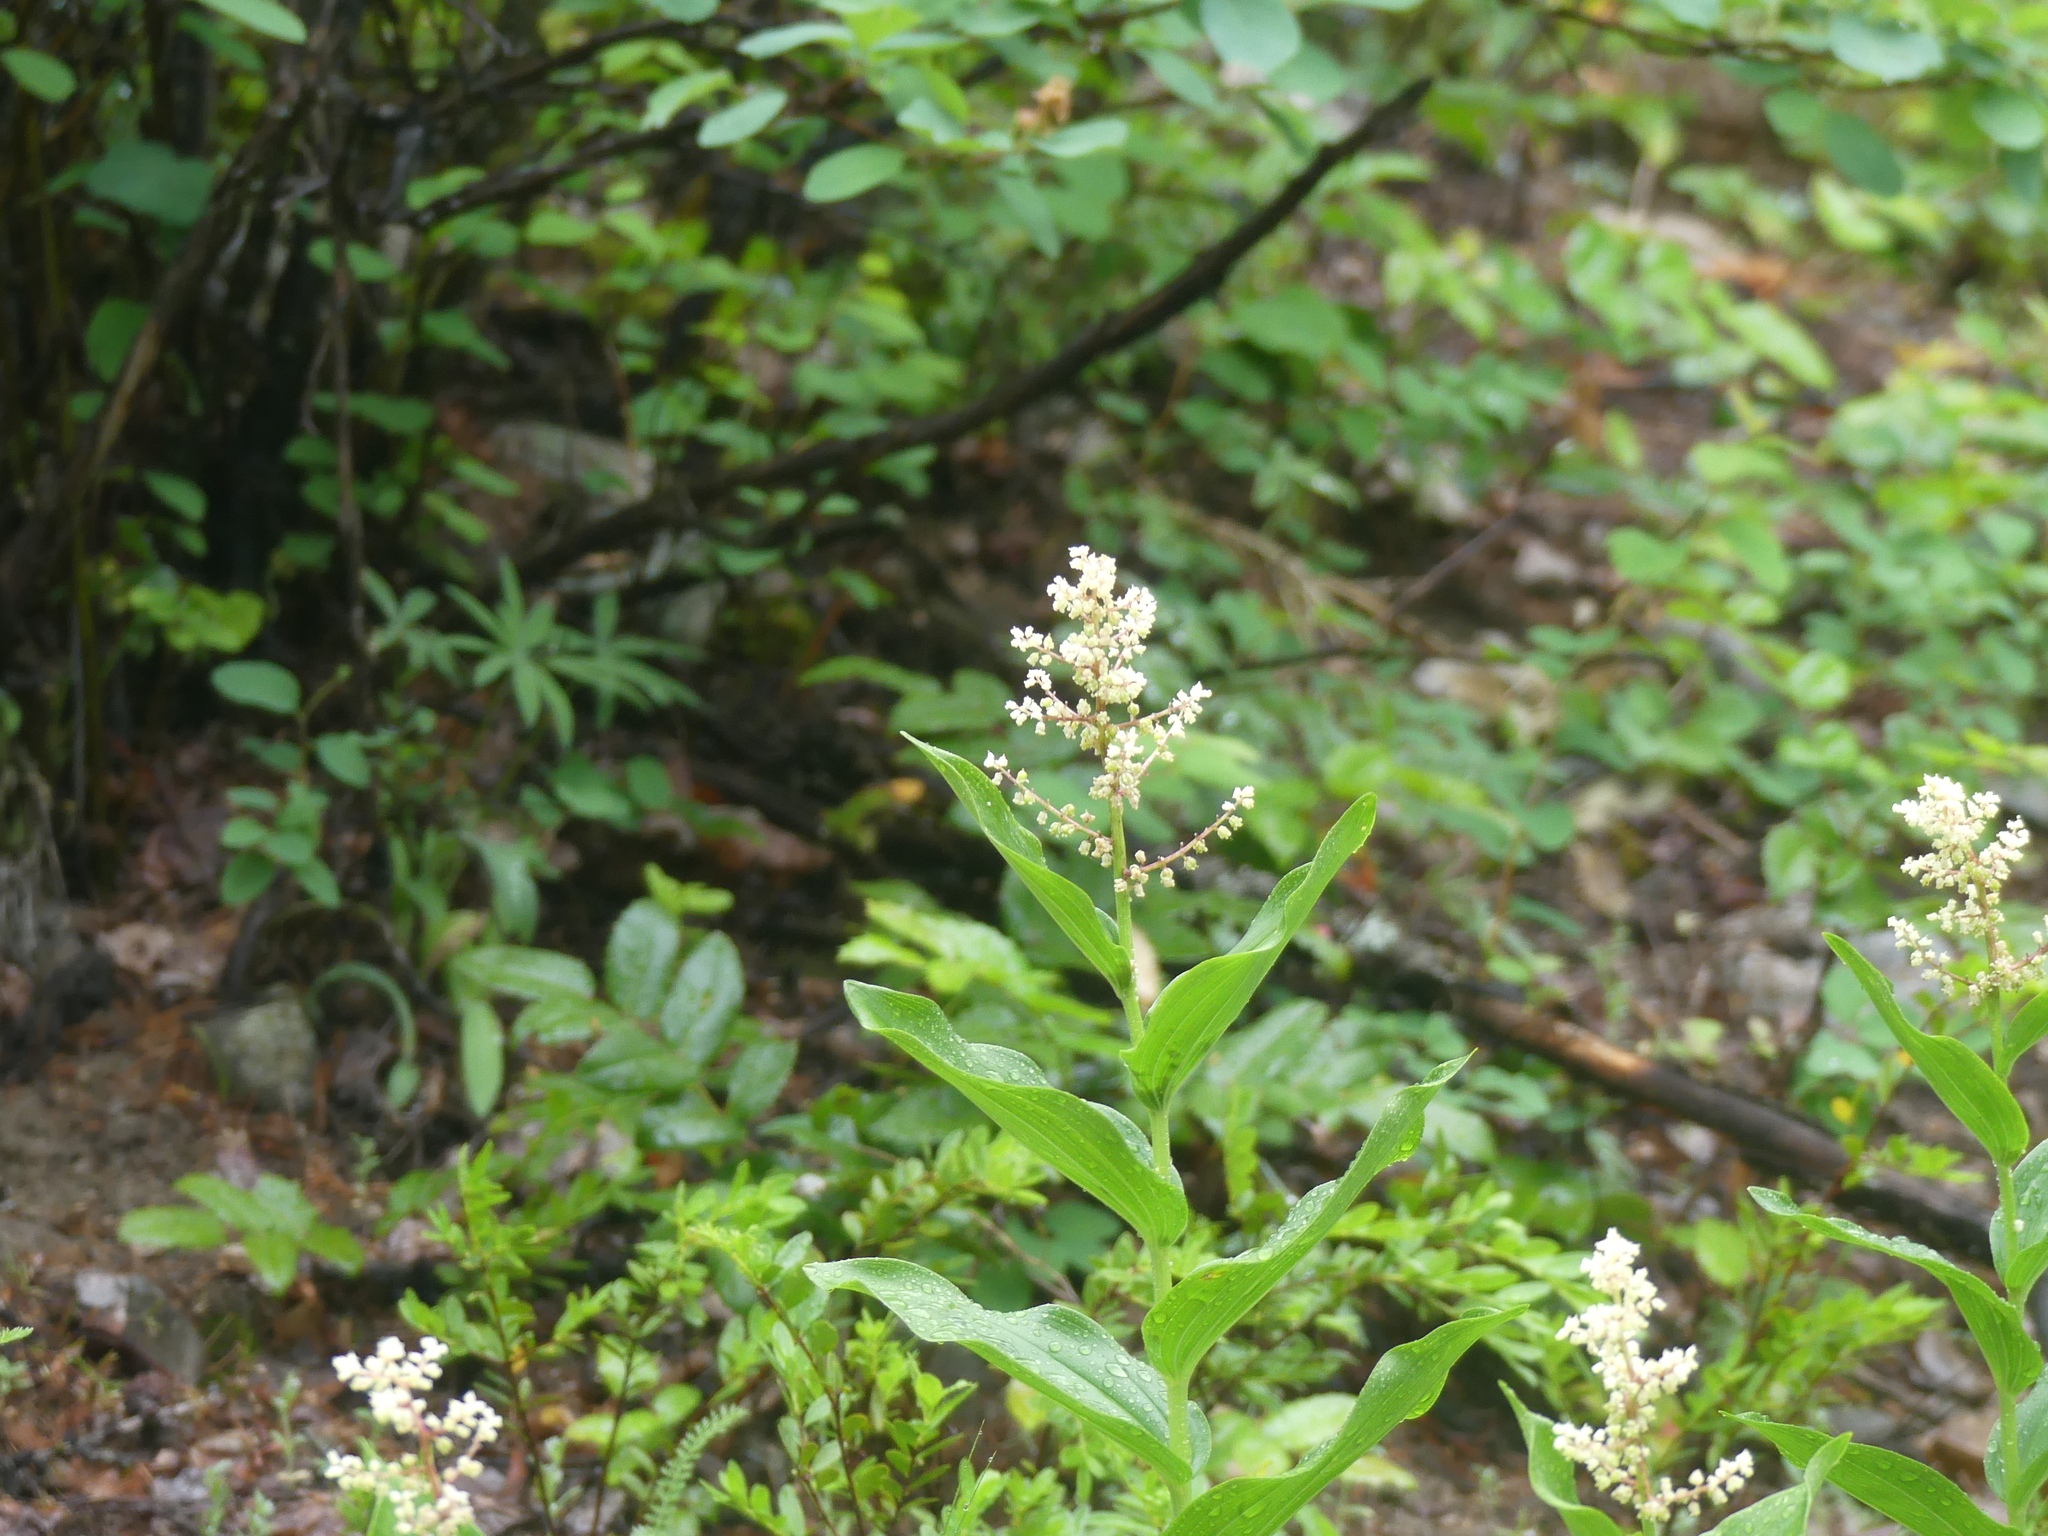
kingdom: Plantae
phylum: Tracheophyta
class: Liliopsida
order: Asparagales
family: Asparagaceae
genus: Maianthemum
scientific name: Maianthemum racemosum
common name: False spikenard
